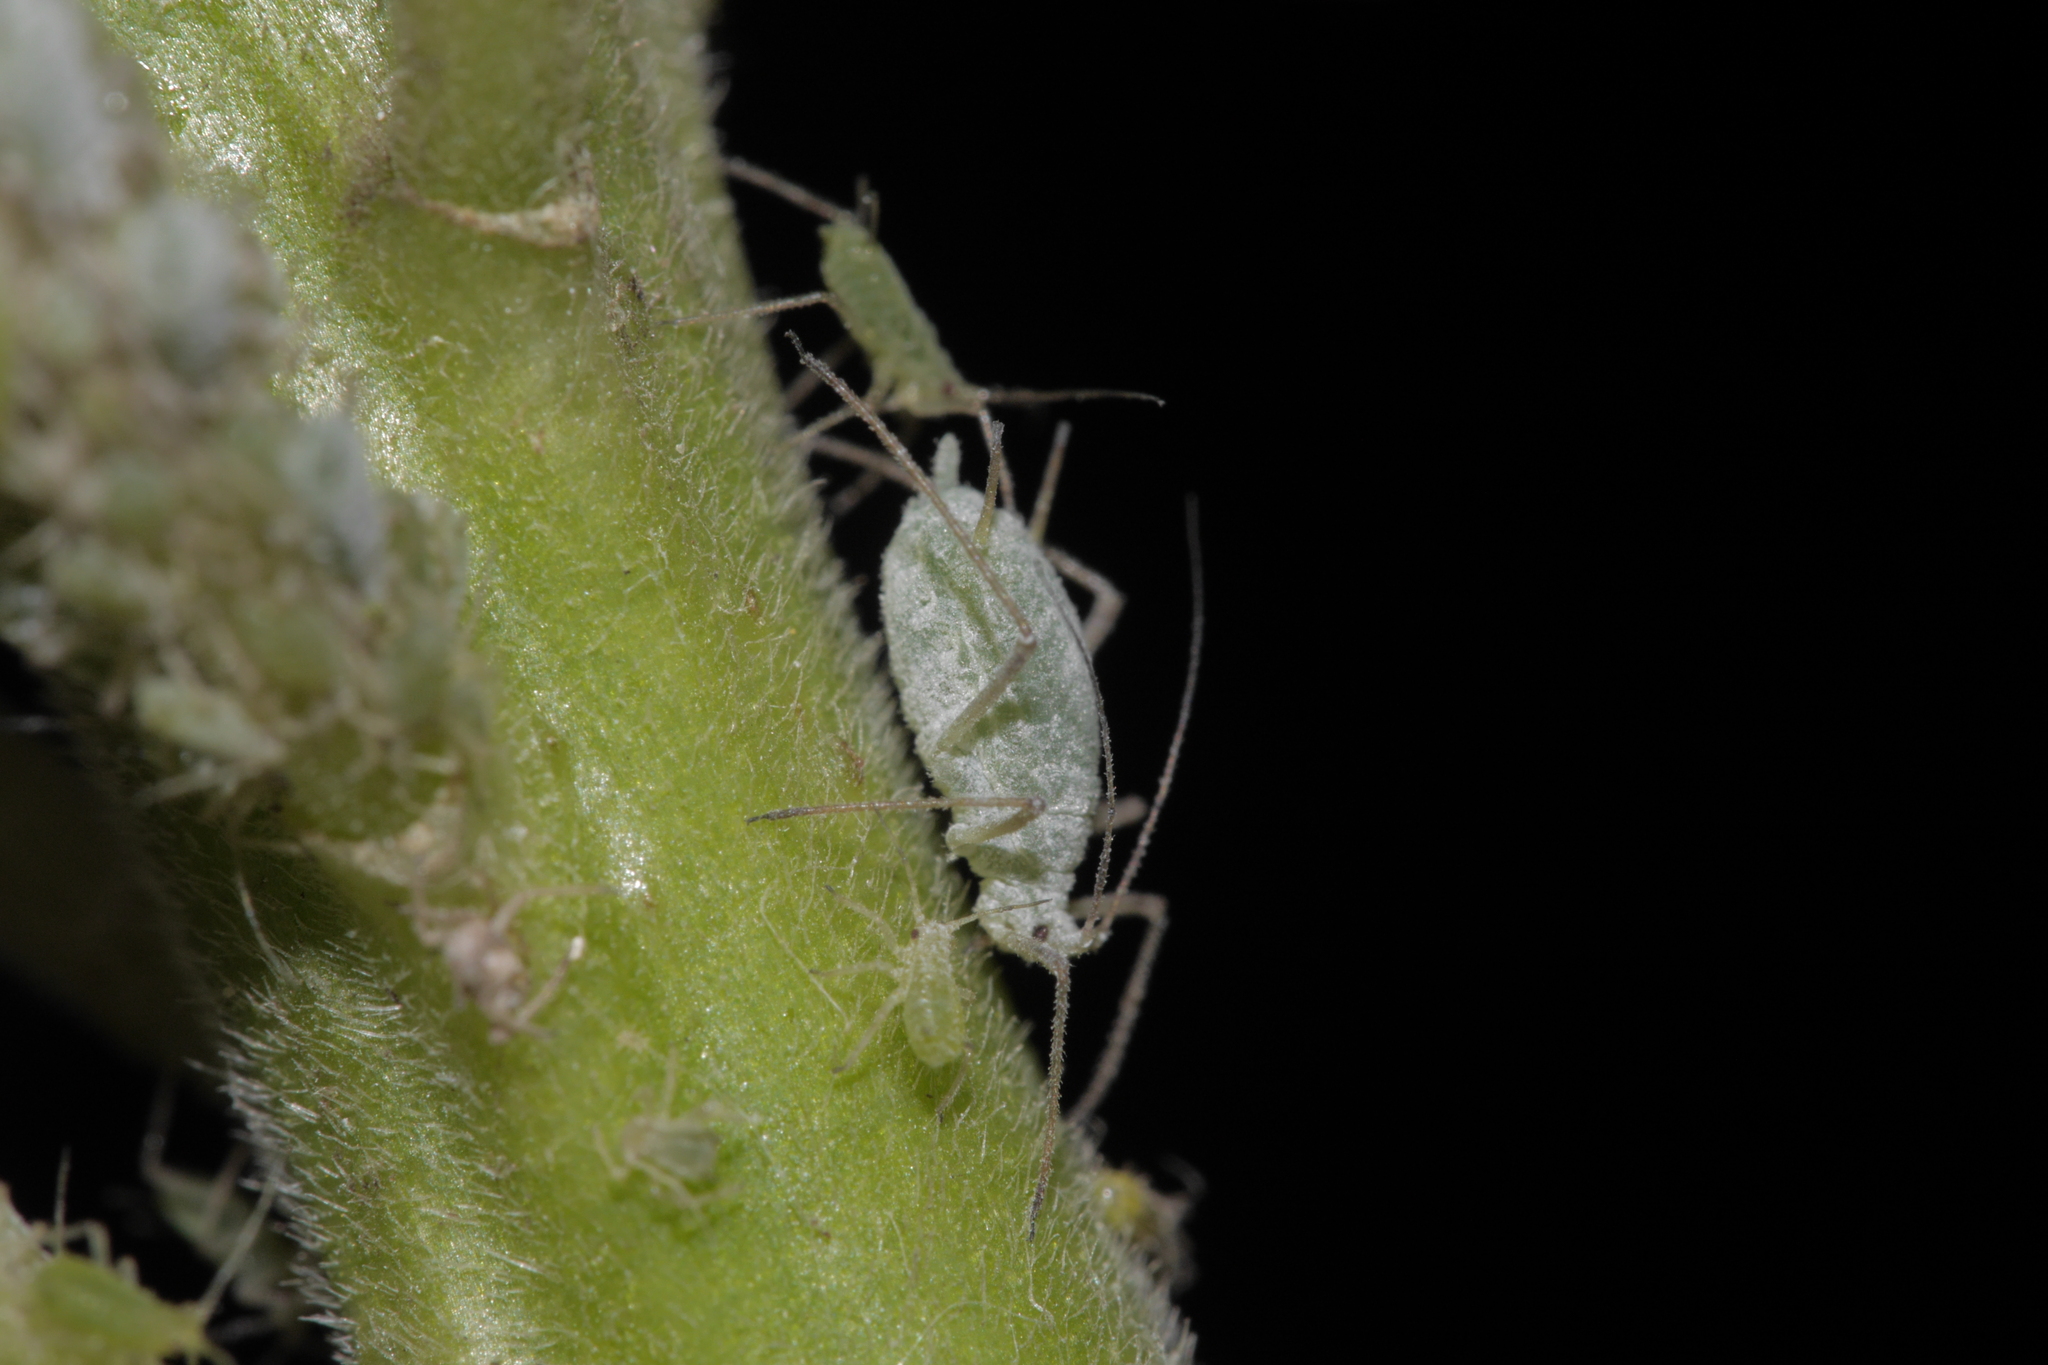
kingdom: Animalia
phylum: Arthropoda
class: Insecta
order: Hemiptera
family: Aphididae
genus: Macrosiphum
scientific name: Macrosiphum albifrons
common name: Lupine aphid
